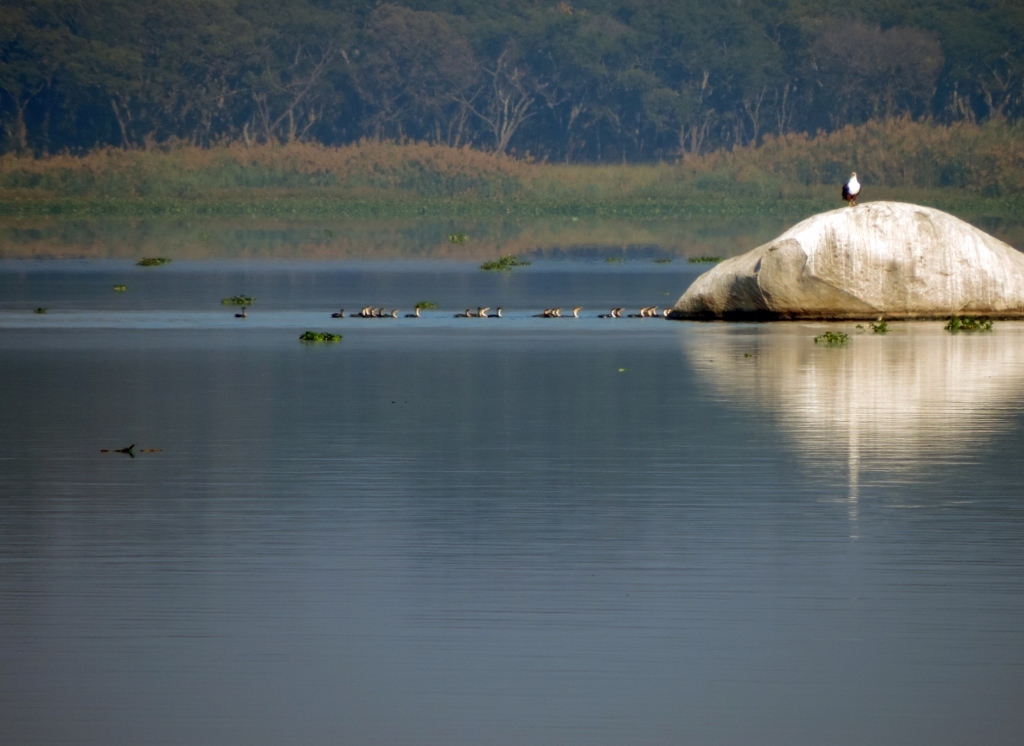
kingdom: Animalia
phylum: Chordata
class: Aves
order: Suliformes
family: Phalacrocoracidae
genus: Phalacrocorax
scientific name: Phalacrocorax carbo
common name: Great cormorant
